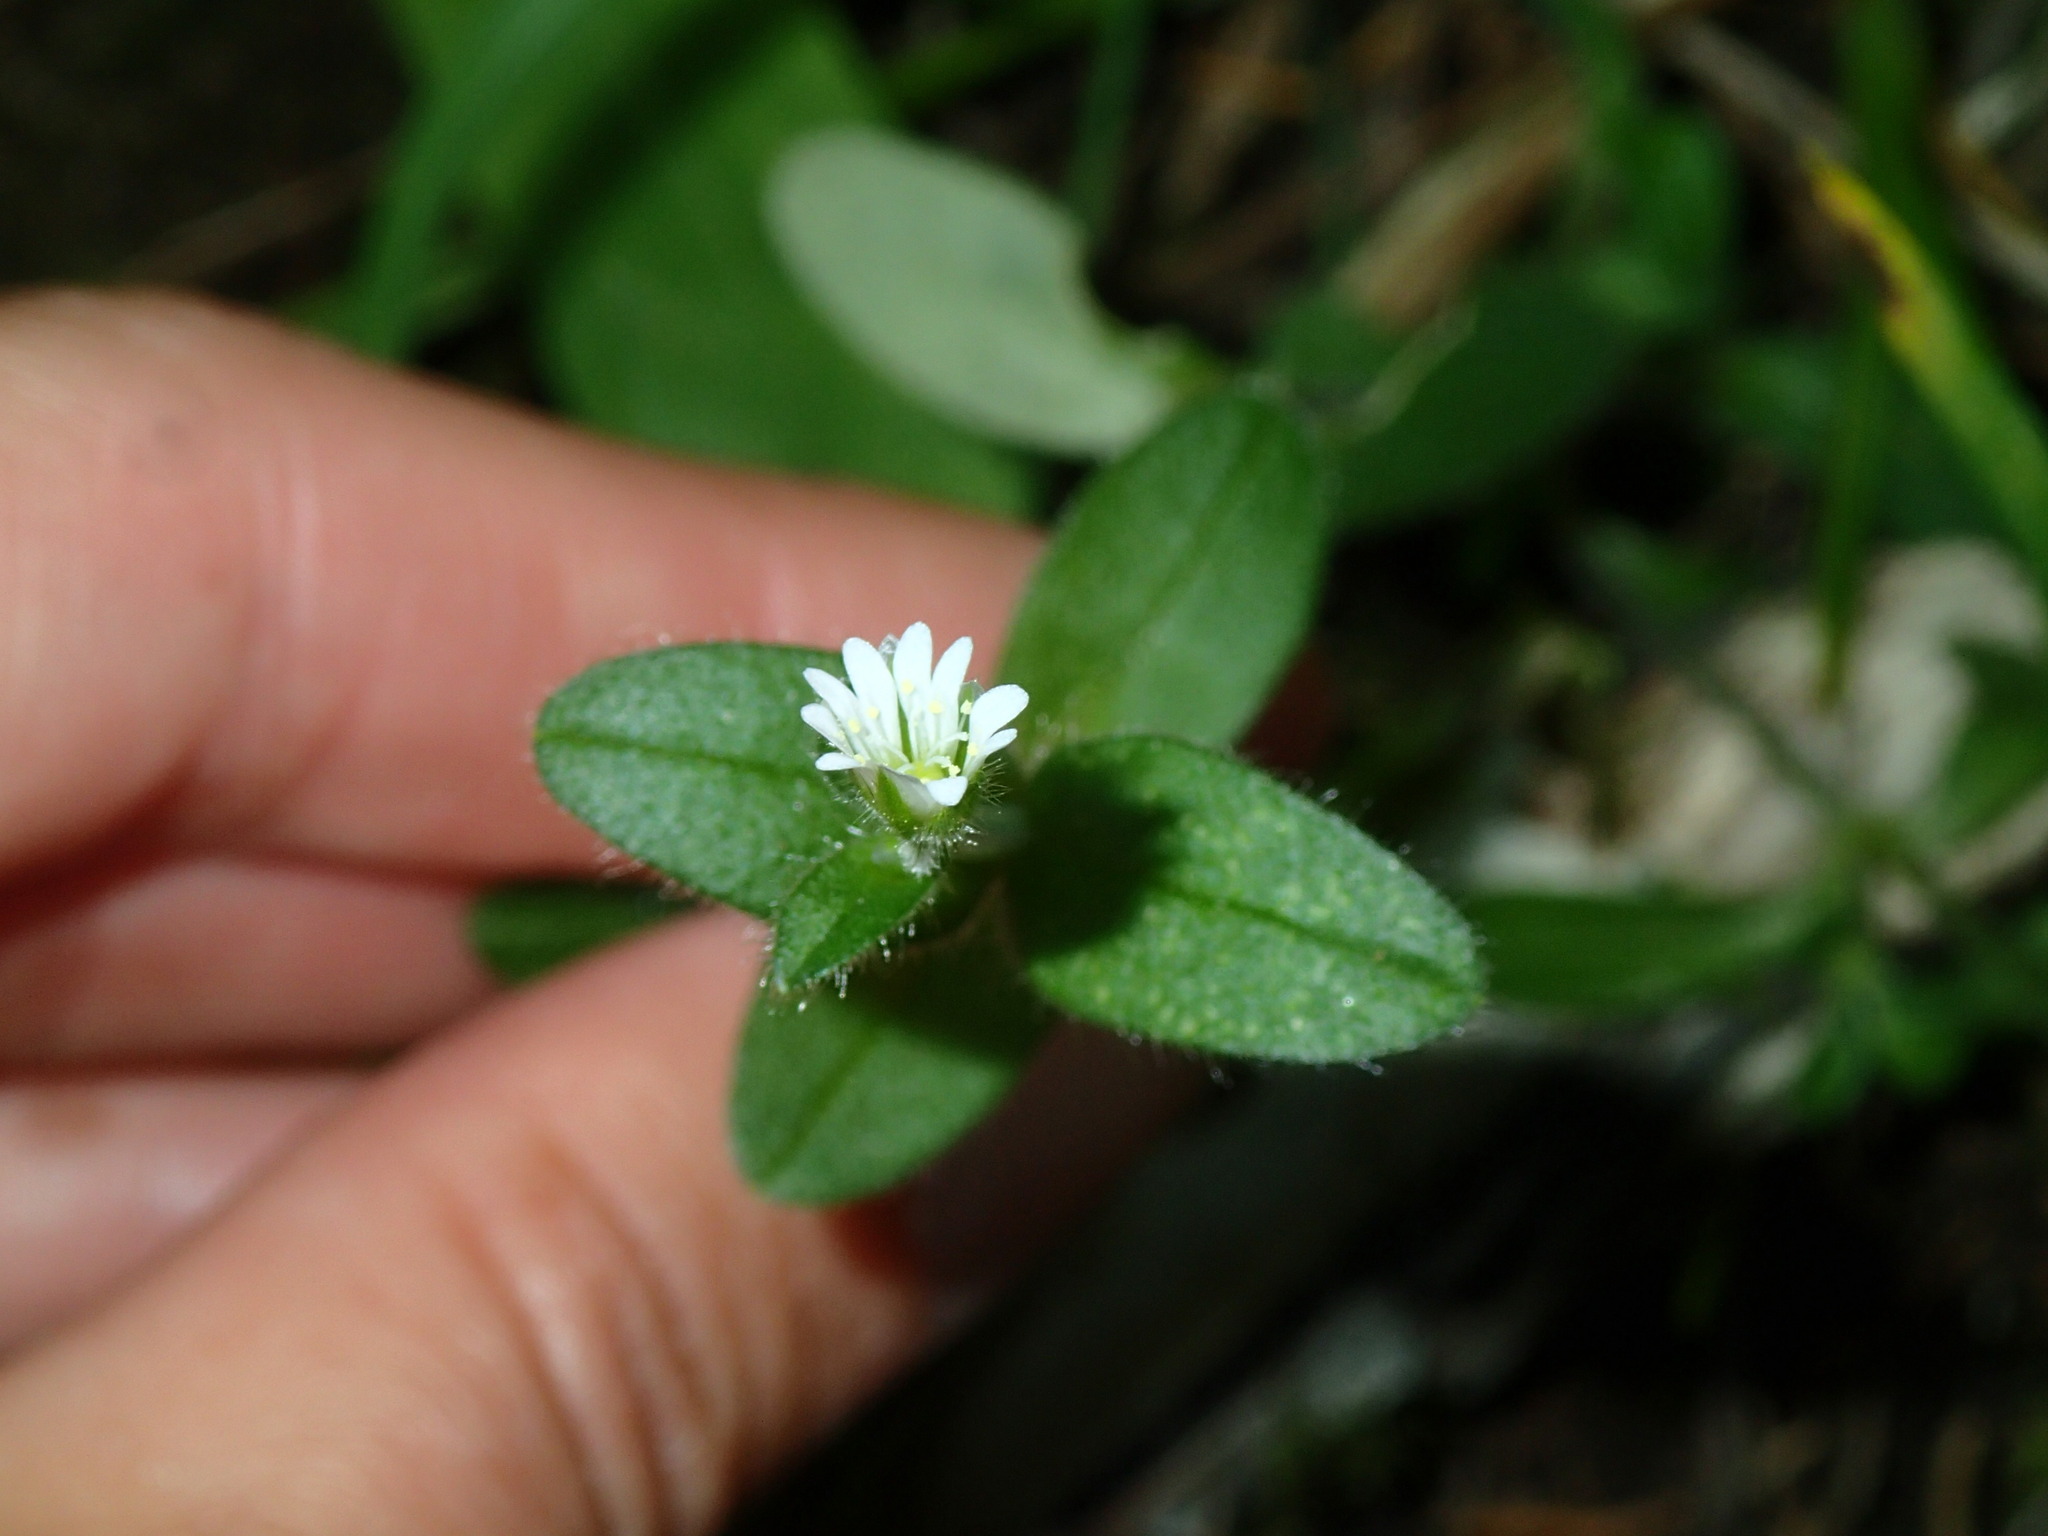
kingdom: Plantae
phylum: Tracheophyta
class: Magnoliopsida
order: Caryophyllales
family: Caryophyllaceae
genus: Cerastium
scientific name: Cerastium fontanum
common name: Common mouse-ear
